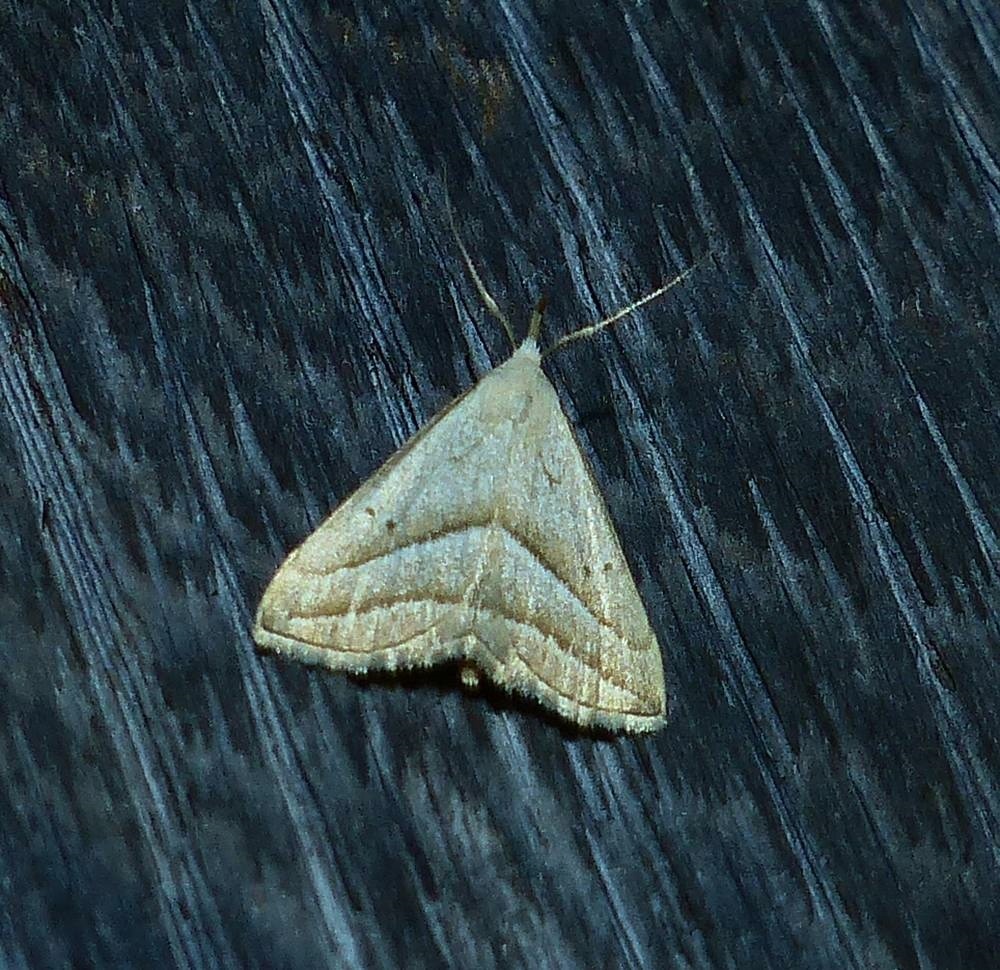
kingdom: Animalia
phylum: Arthropoda
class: Insecta
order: Lepidoptera
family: Erebidae
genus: Macrochilo
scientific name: Macrochilo absorptalis
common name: Slant-lined owlet
